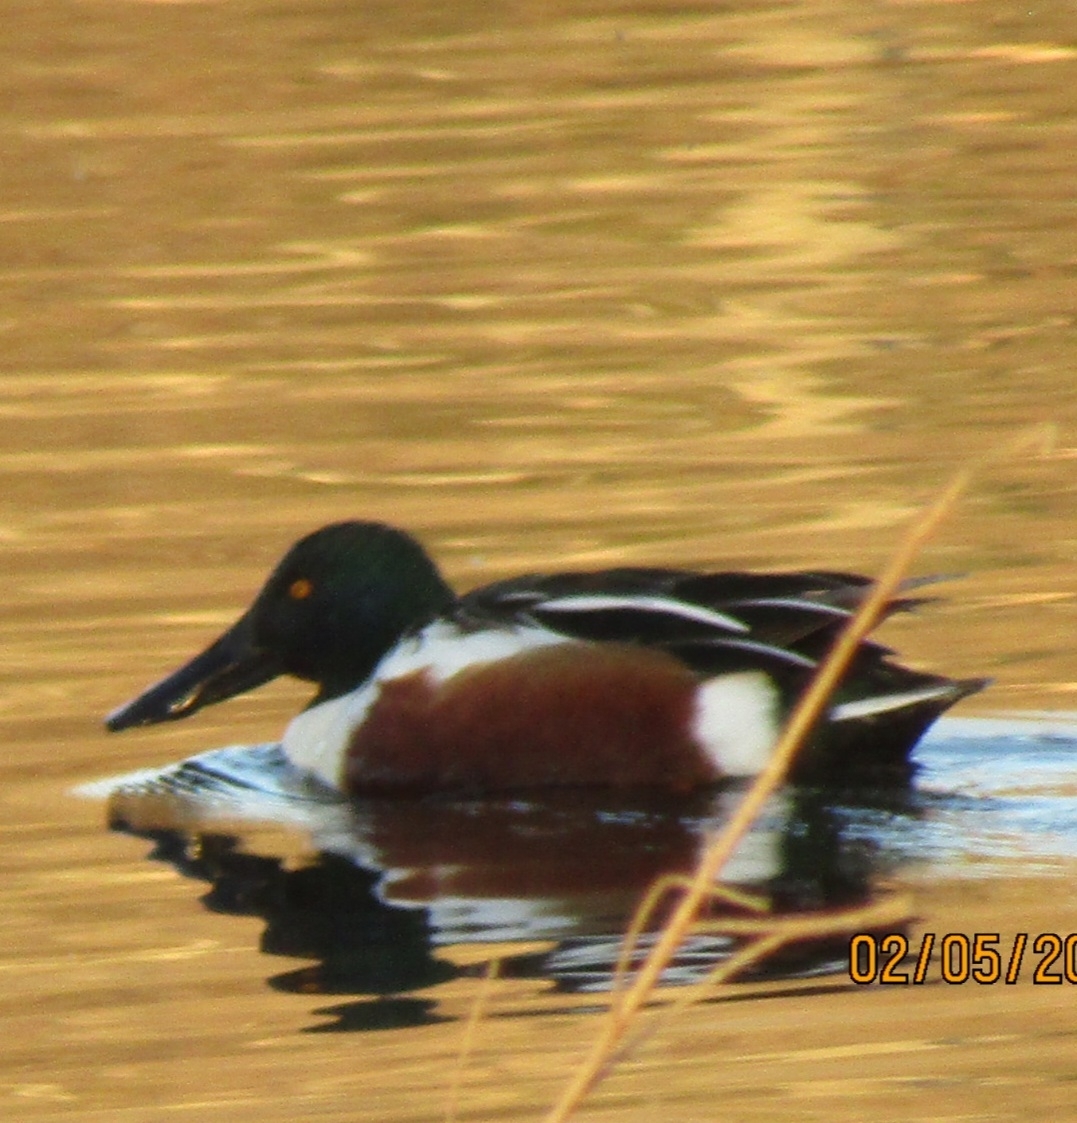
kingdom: Animalia
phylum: Chordata
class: Aves
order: Anseriformes
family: Anatidae
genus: Spatula
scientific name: Spatula clypeata
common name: Northern shoveler
